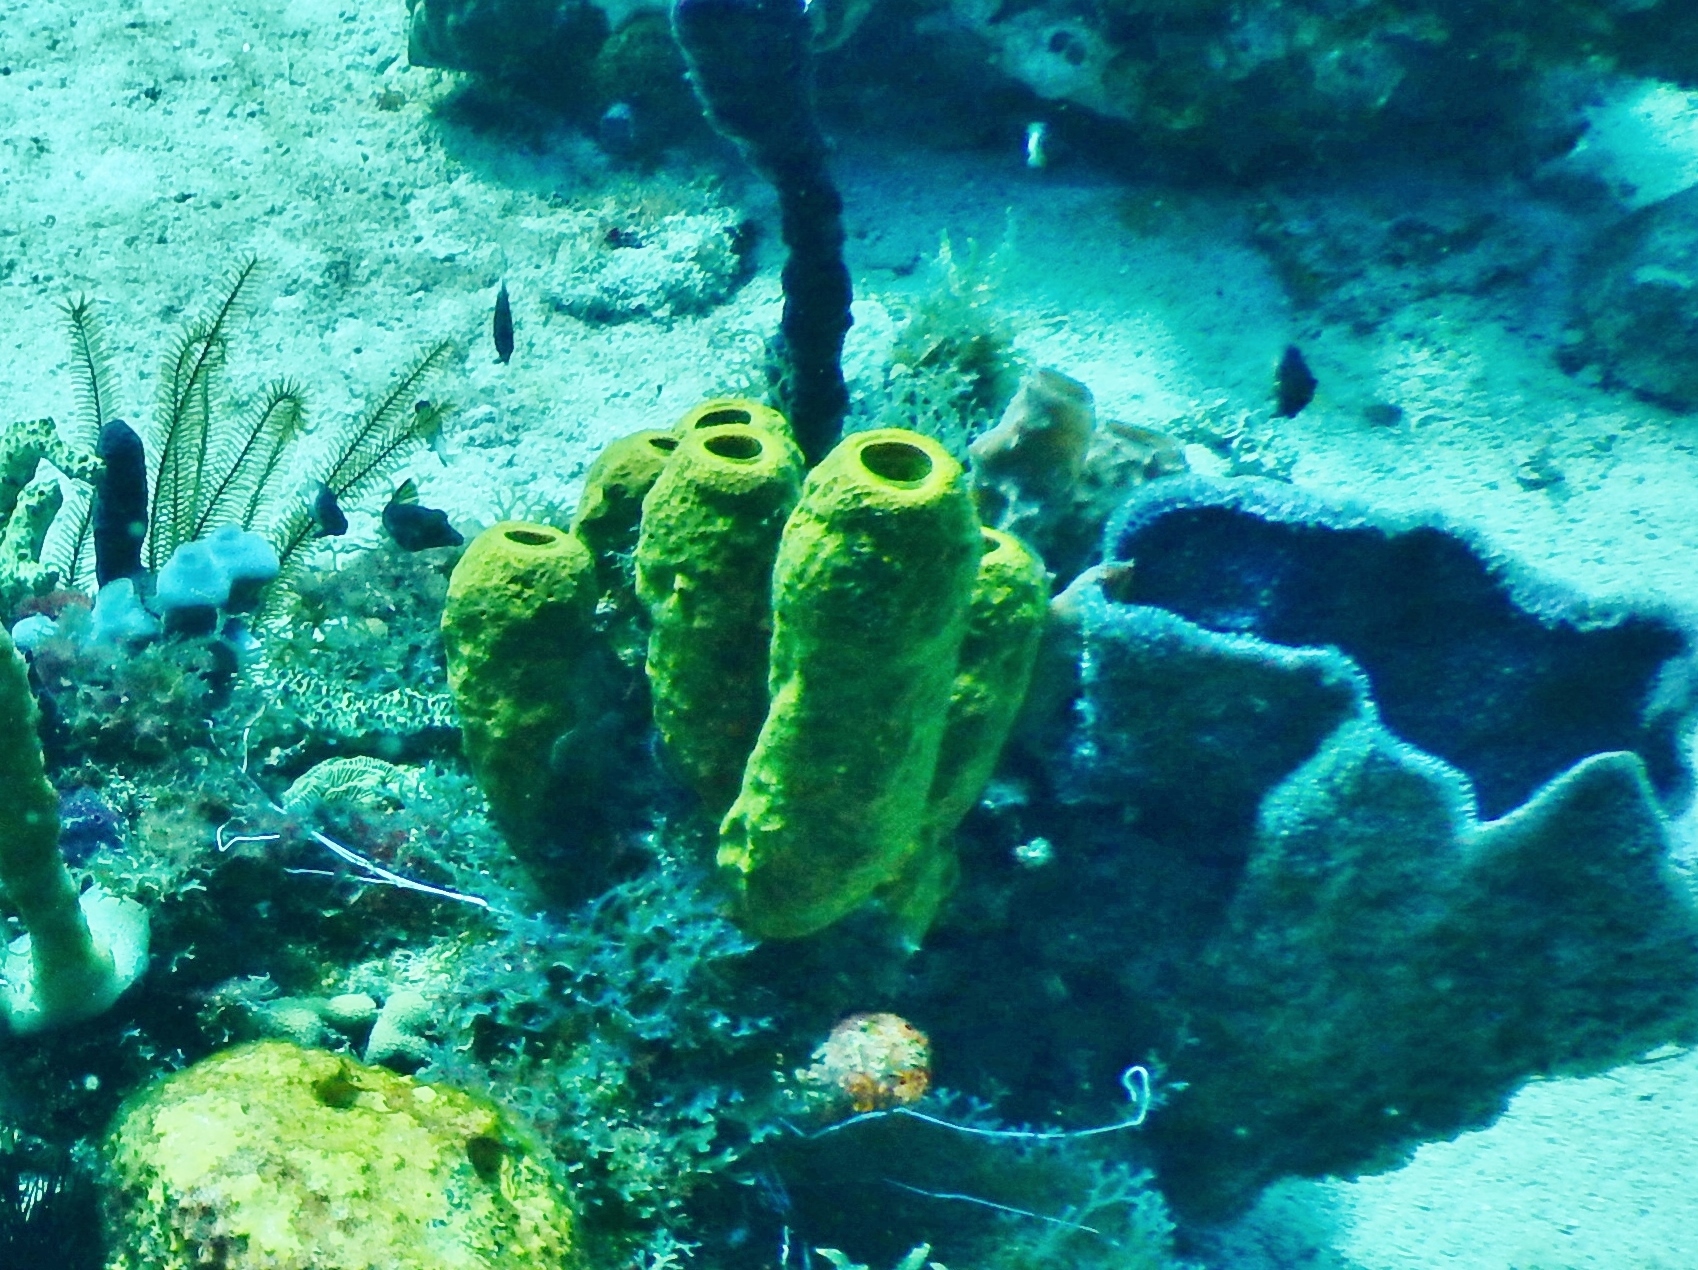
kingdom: Animalia
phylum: Porifera
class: Demospongiae
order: Verongiida
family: Aplysinidae
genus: Aplysina
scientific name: Aplysina fistularis
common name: Candle sponge
